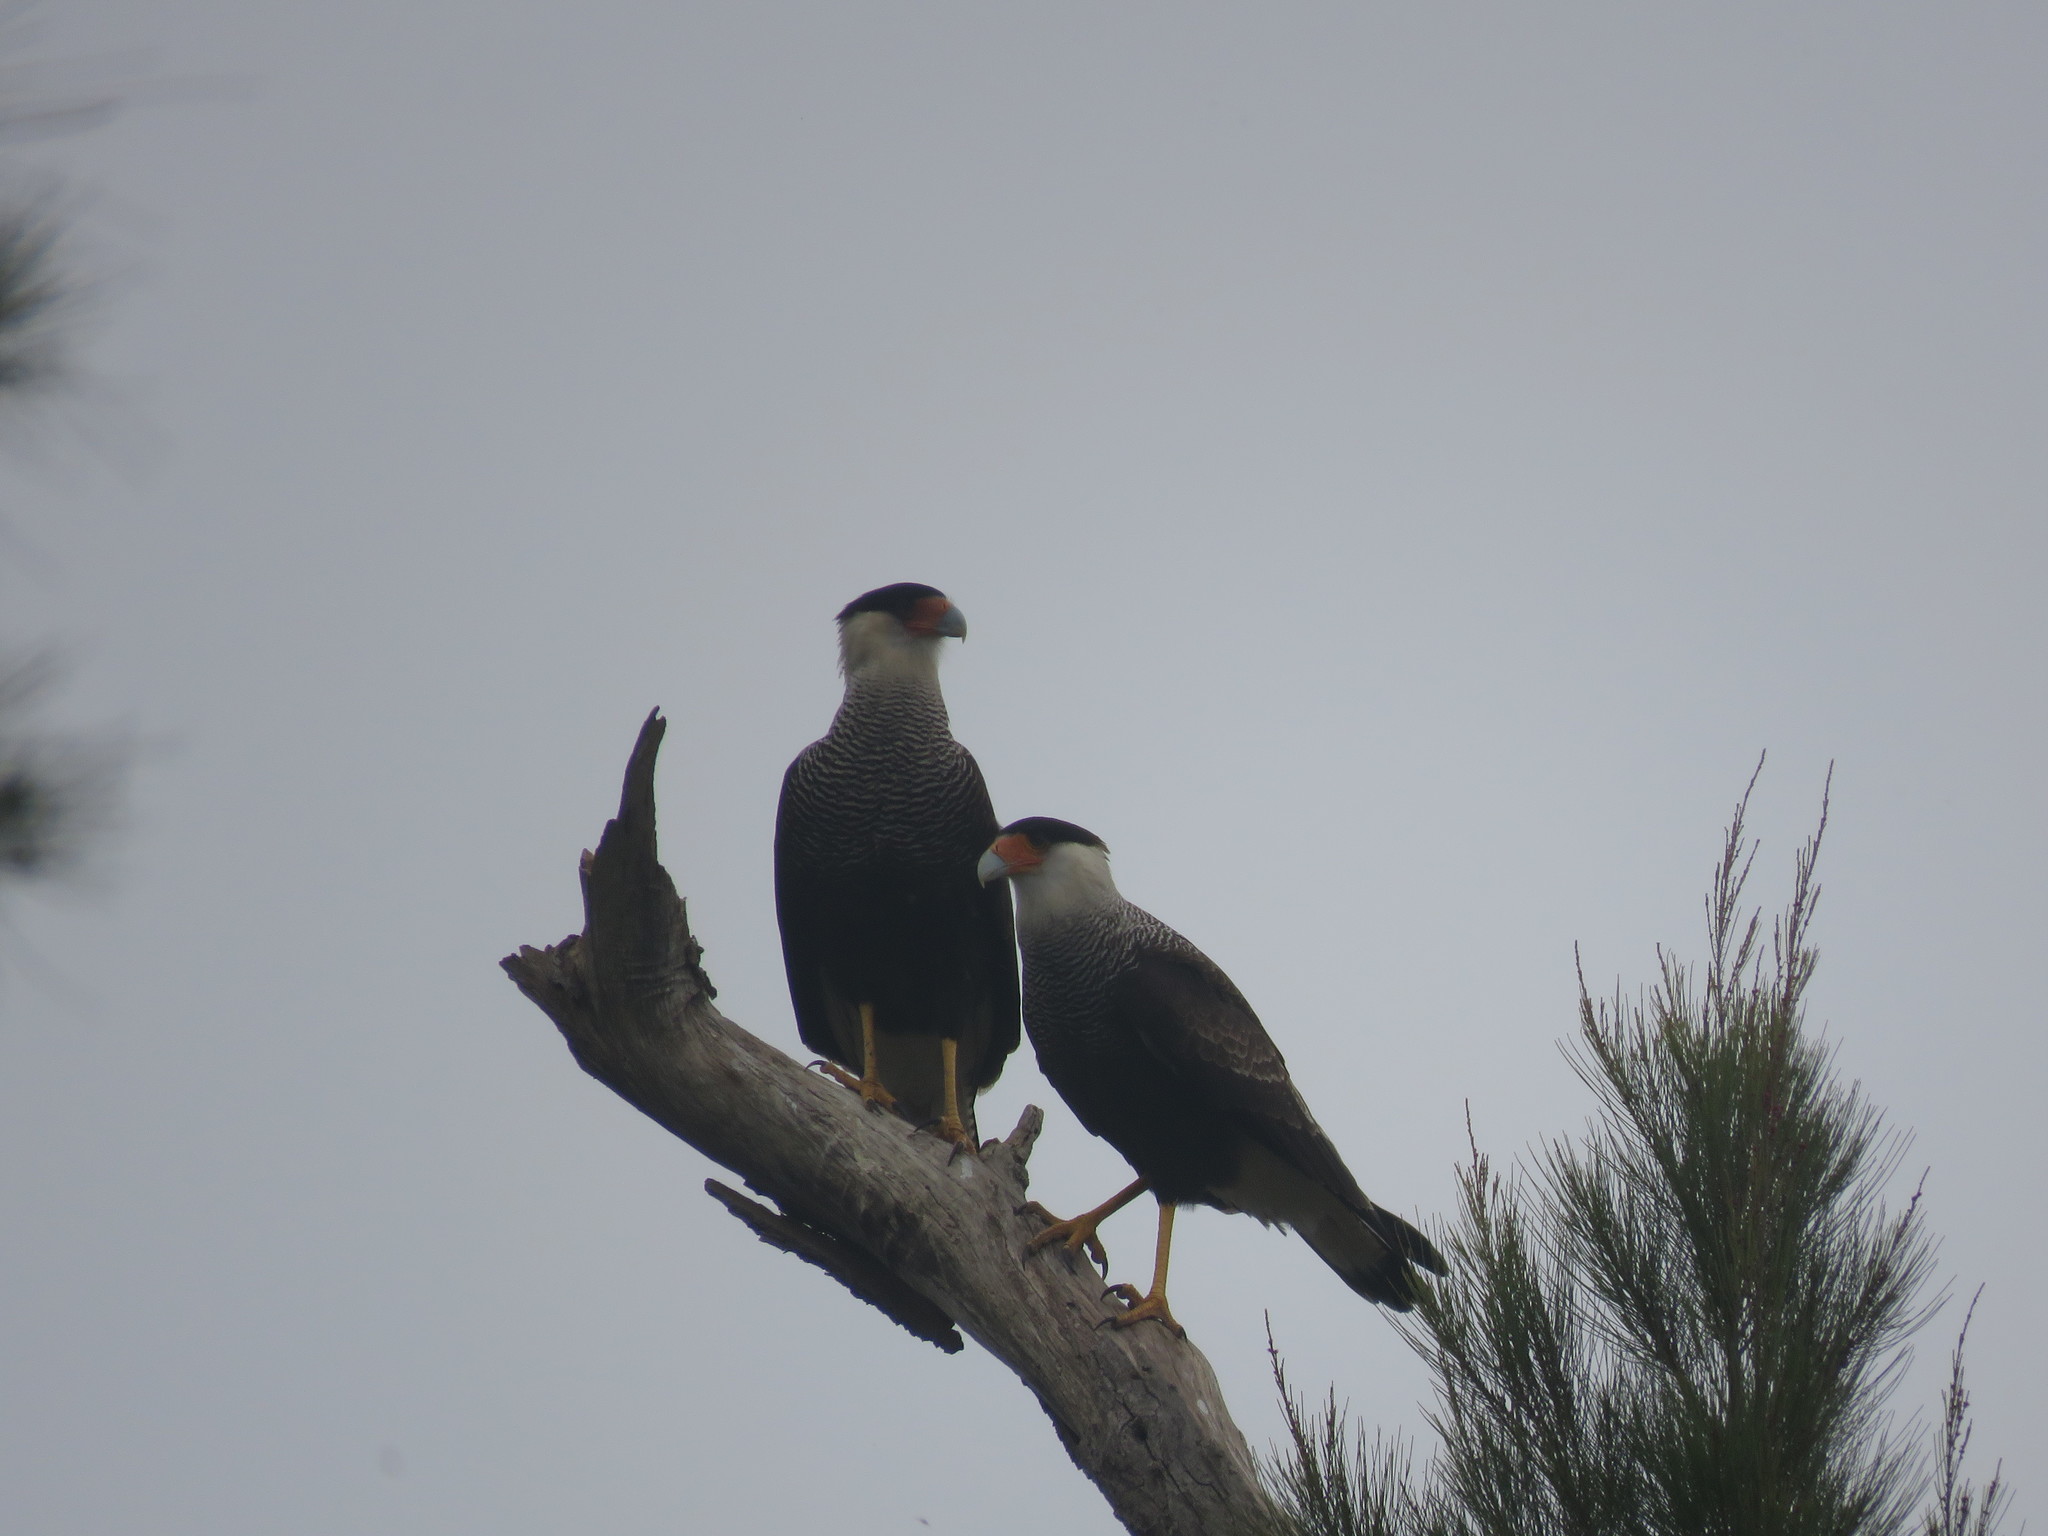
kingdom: Animalia
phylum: Chordata
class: Aves
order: Falconiformes
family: Falconidae
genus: Caracara
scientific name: Caracara plancus
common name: Southern caracara
